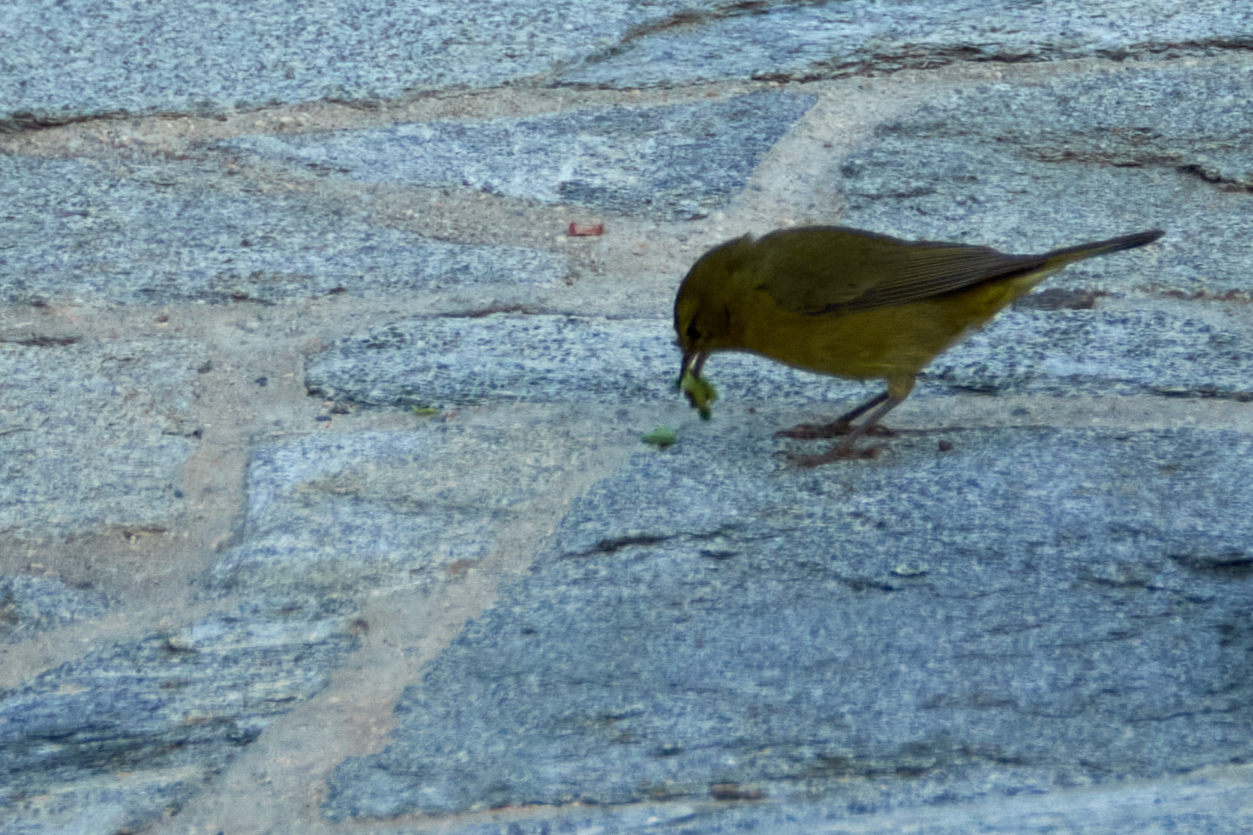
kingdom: Animalia
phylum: Chordata
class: Aves
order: Passeriformes
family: Parulidae
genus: Leiothlypis
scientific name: Leiothlypis celata
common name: Orange-crowned warbler
